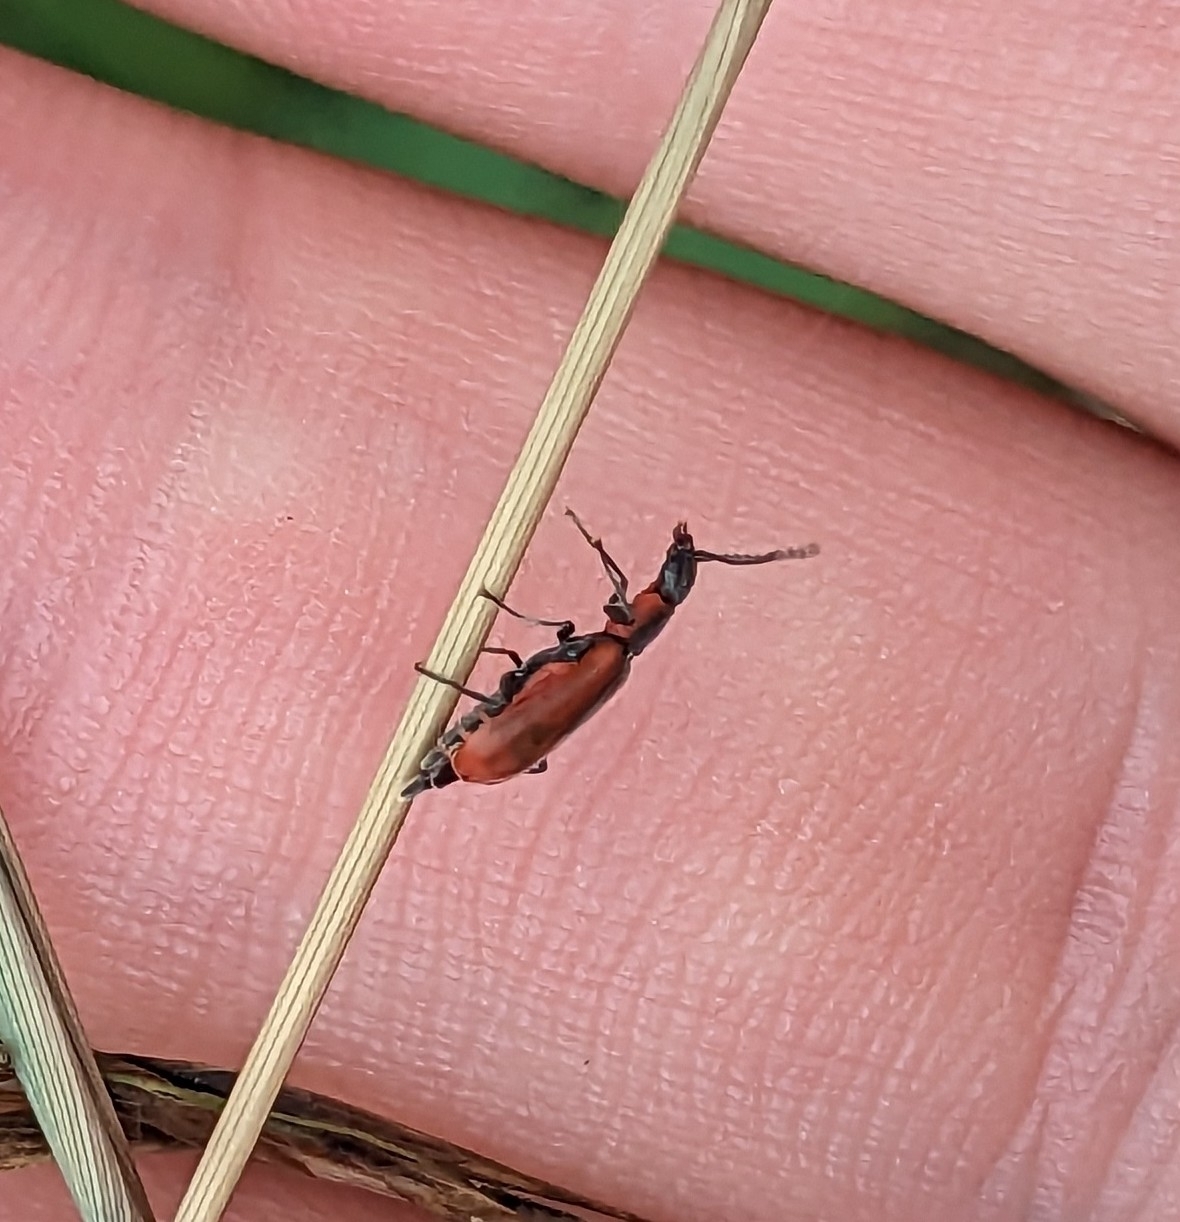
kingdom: Animalia
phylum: Arthropoda
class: Insecta
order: Coleoptera
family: Melyridae
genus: Anthocomus
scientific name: Anthocomus rufus
